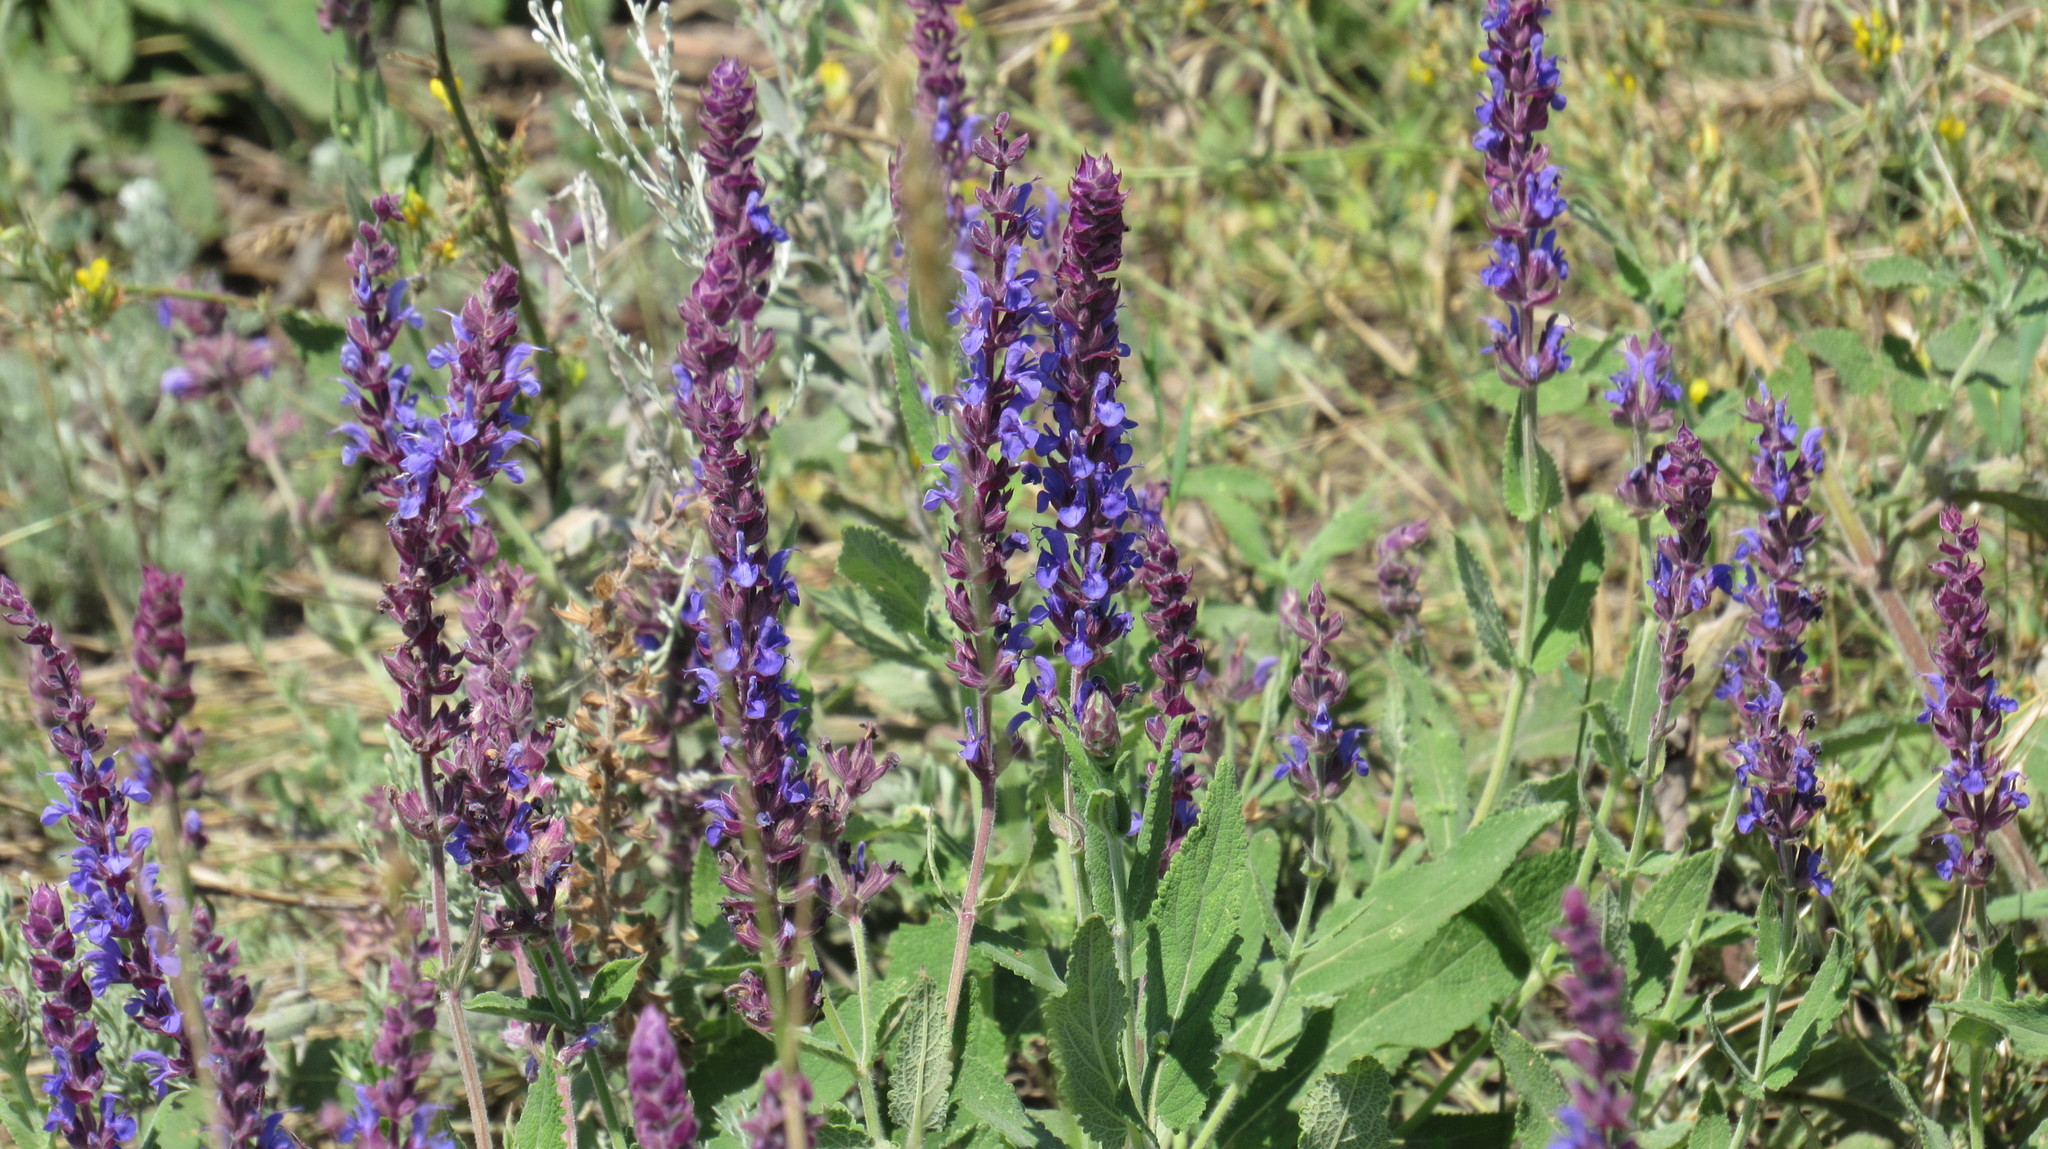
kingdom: Plantae
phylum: Tracheophyta
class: Magnoliopsida
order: Lamiales
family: Lamiaceae
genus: Salvia
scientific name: Salvia nemorosa
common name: Balkan clary
